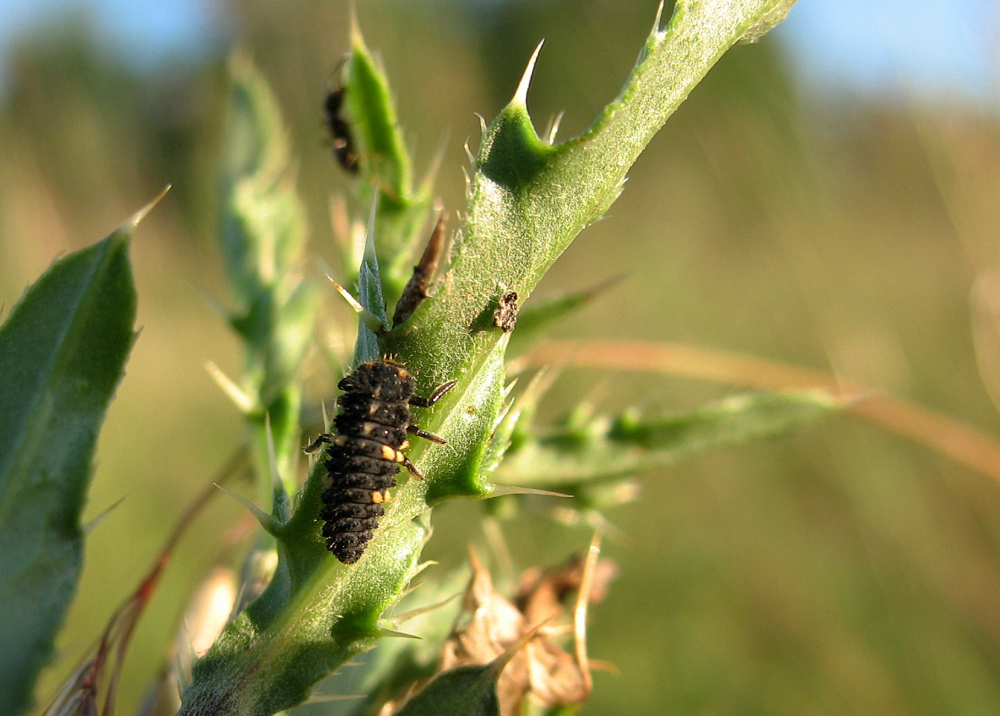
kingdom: Animalia
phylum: Arthropoda
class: Insecta
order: Coleoptera
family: Coccinellidae
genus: Ceratomegilla
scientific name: Ceratomegilla notata
